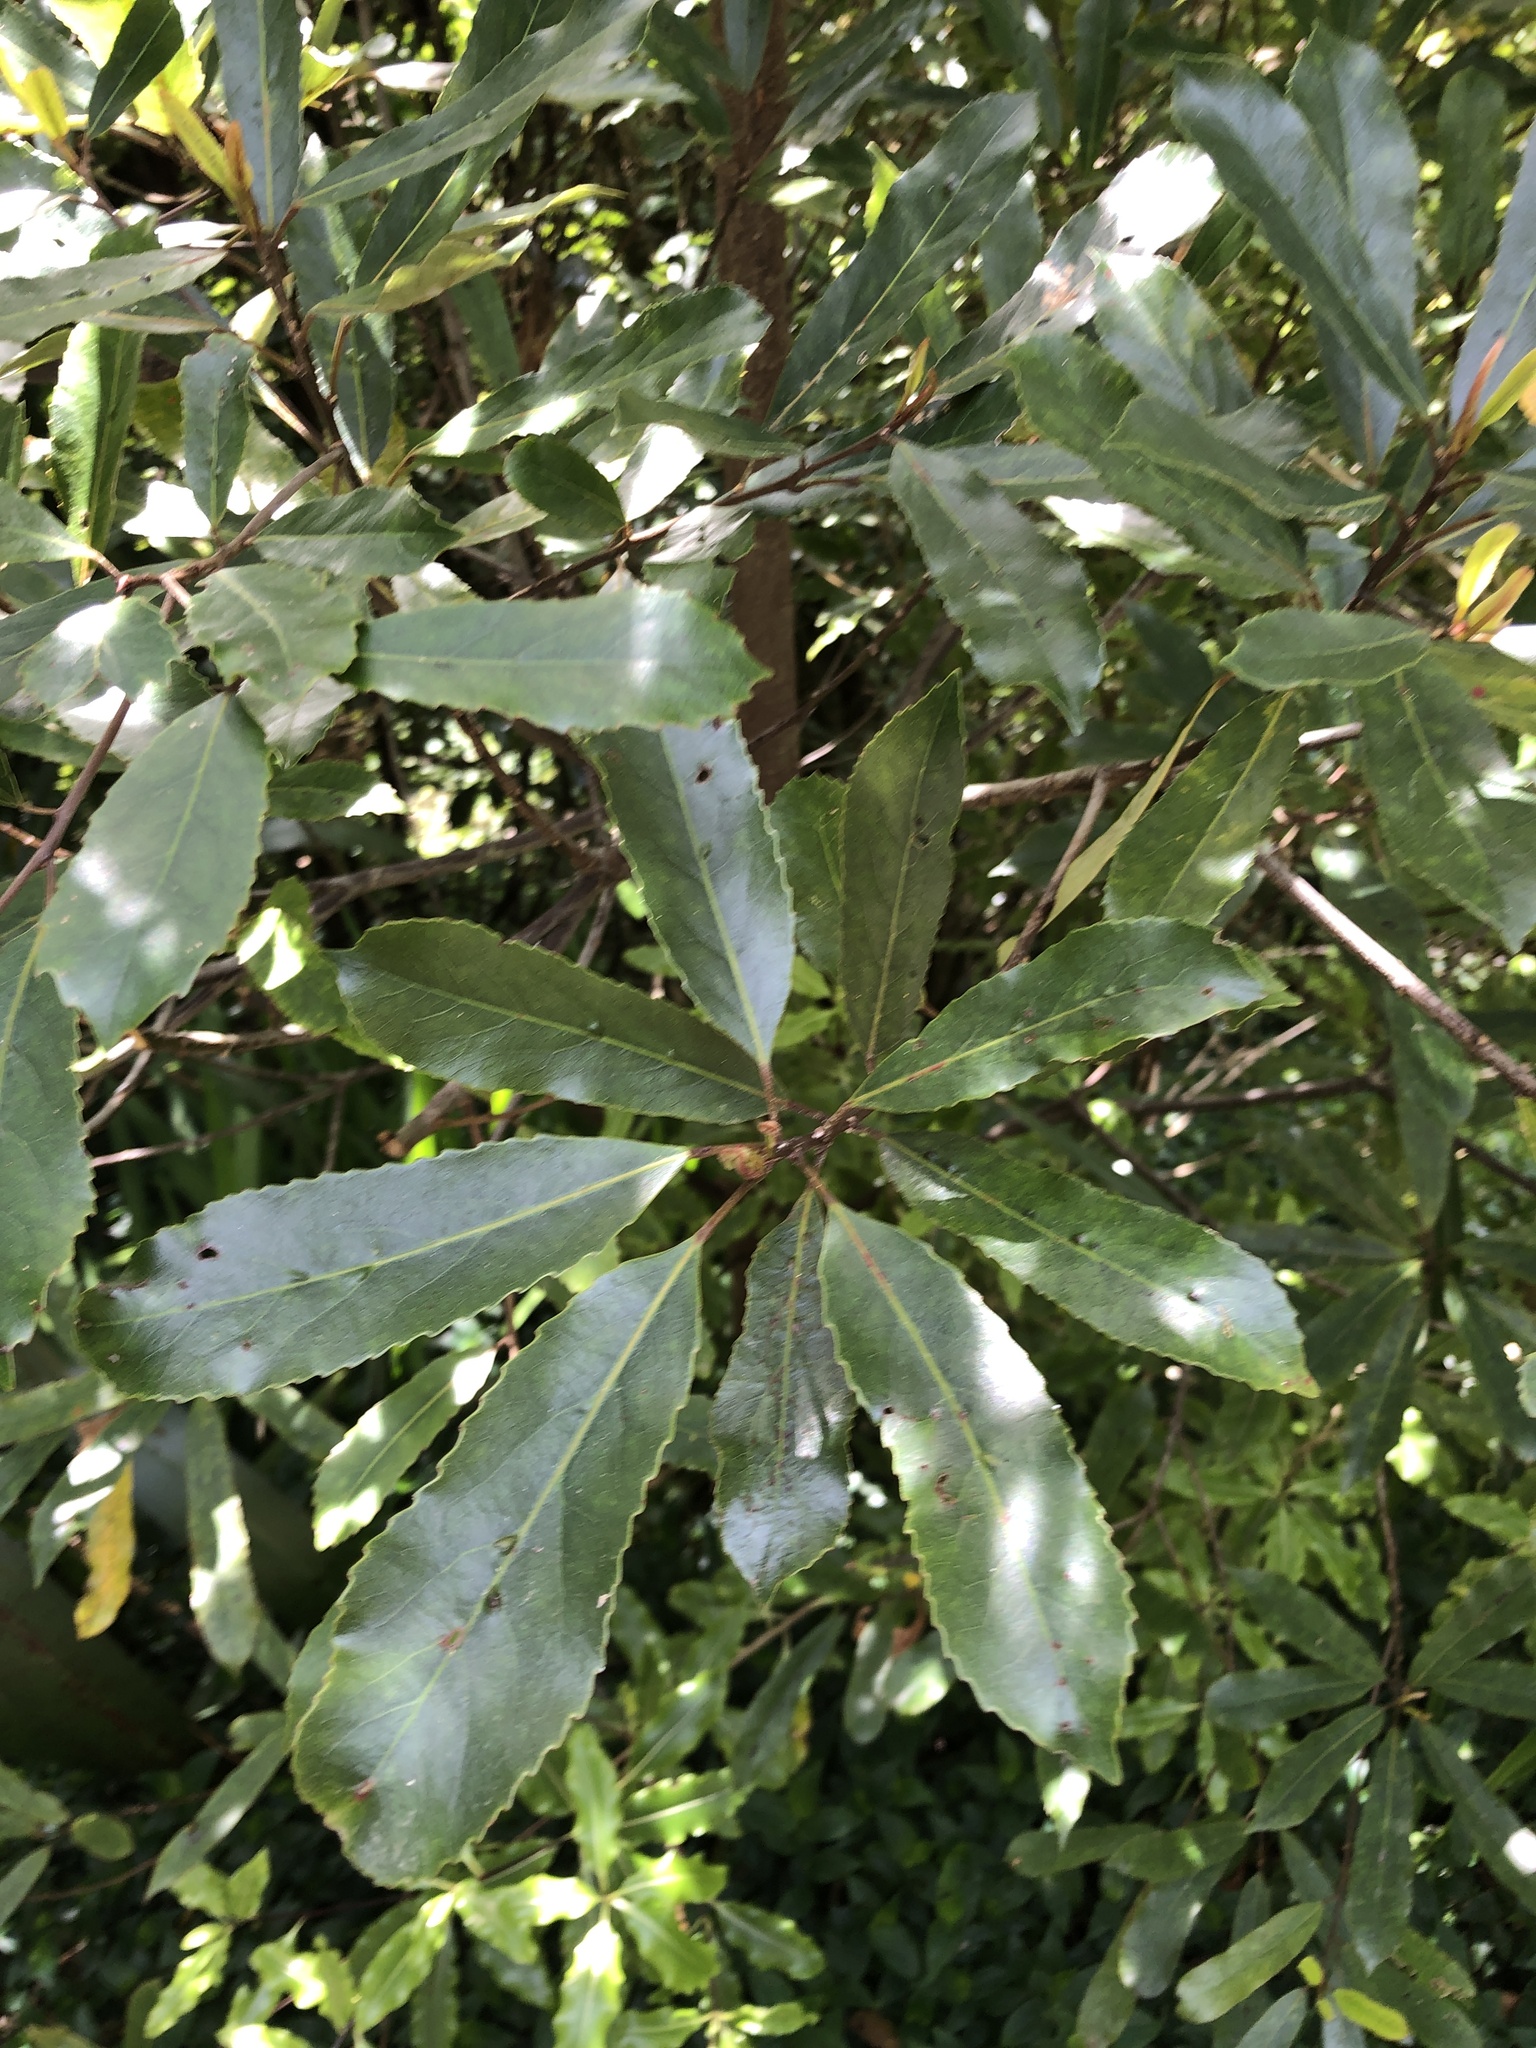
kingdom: Plantae
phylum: Tracheophyta
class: Magnoliopsida
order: Oxalidales
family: Elaeocarpaceae
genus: Elaeocarpus
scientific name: Elaeocarpus dentatus
